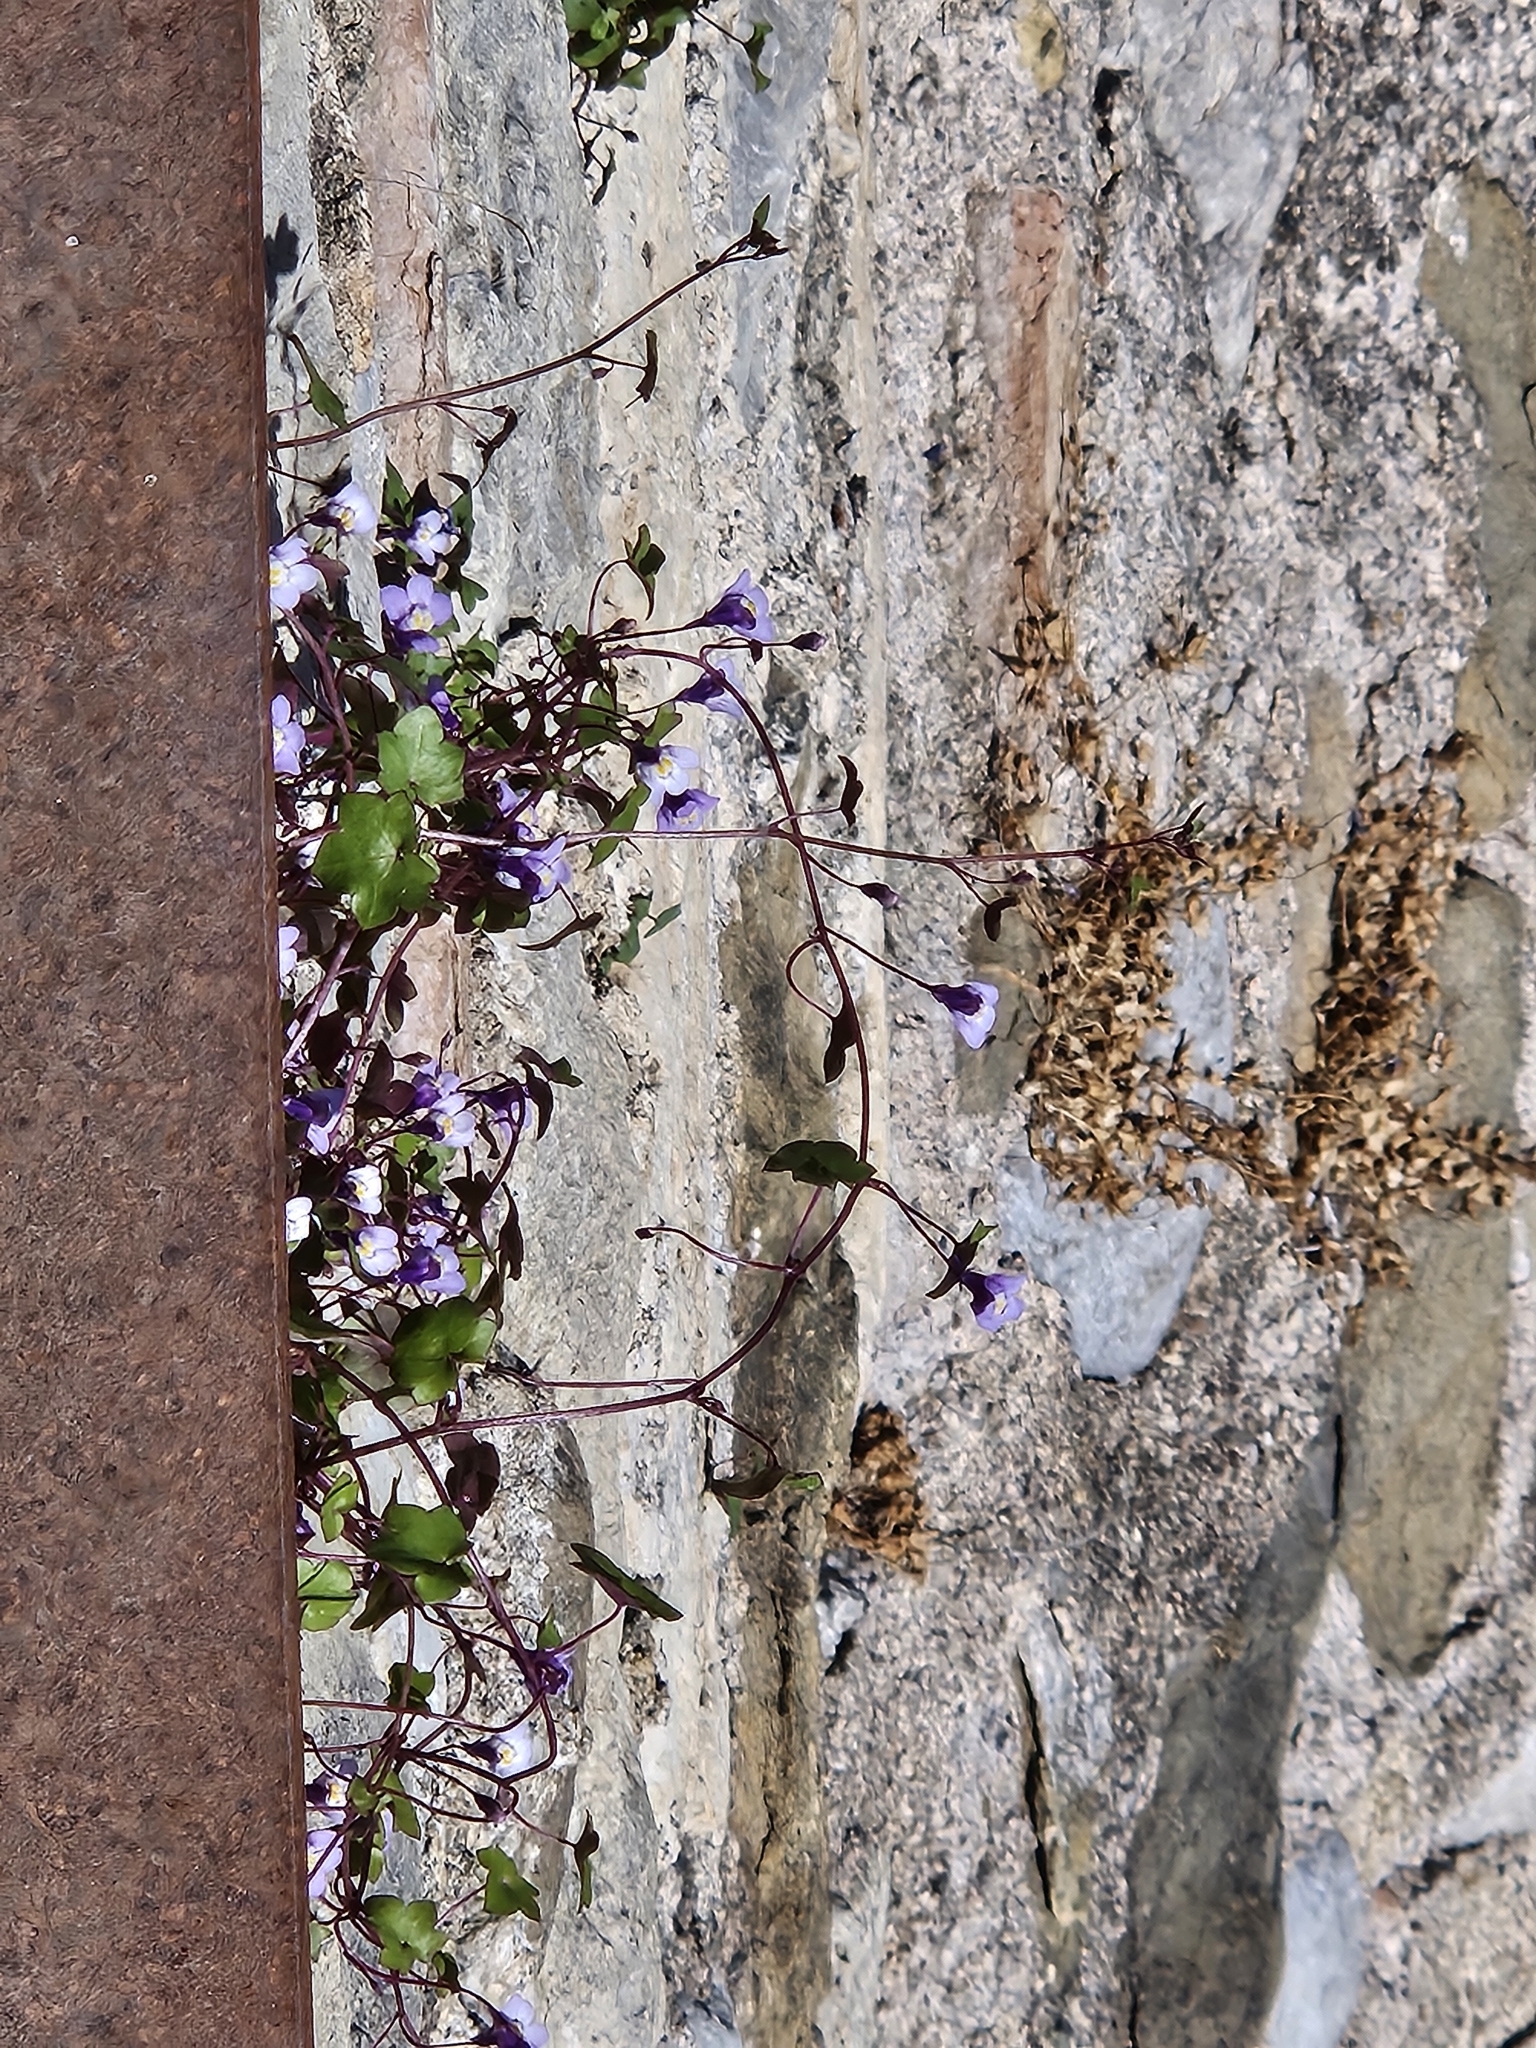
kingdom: Plantae
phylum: Tracheophyta
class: Magnoliopsida
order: Ranunculales
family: Papaveraceae
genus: Sarcocapnos
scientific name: Sarcocapnos enneaphylla
